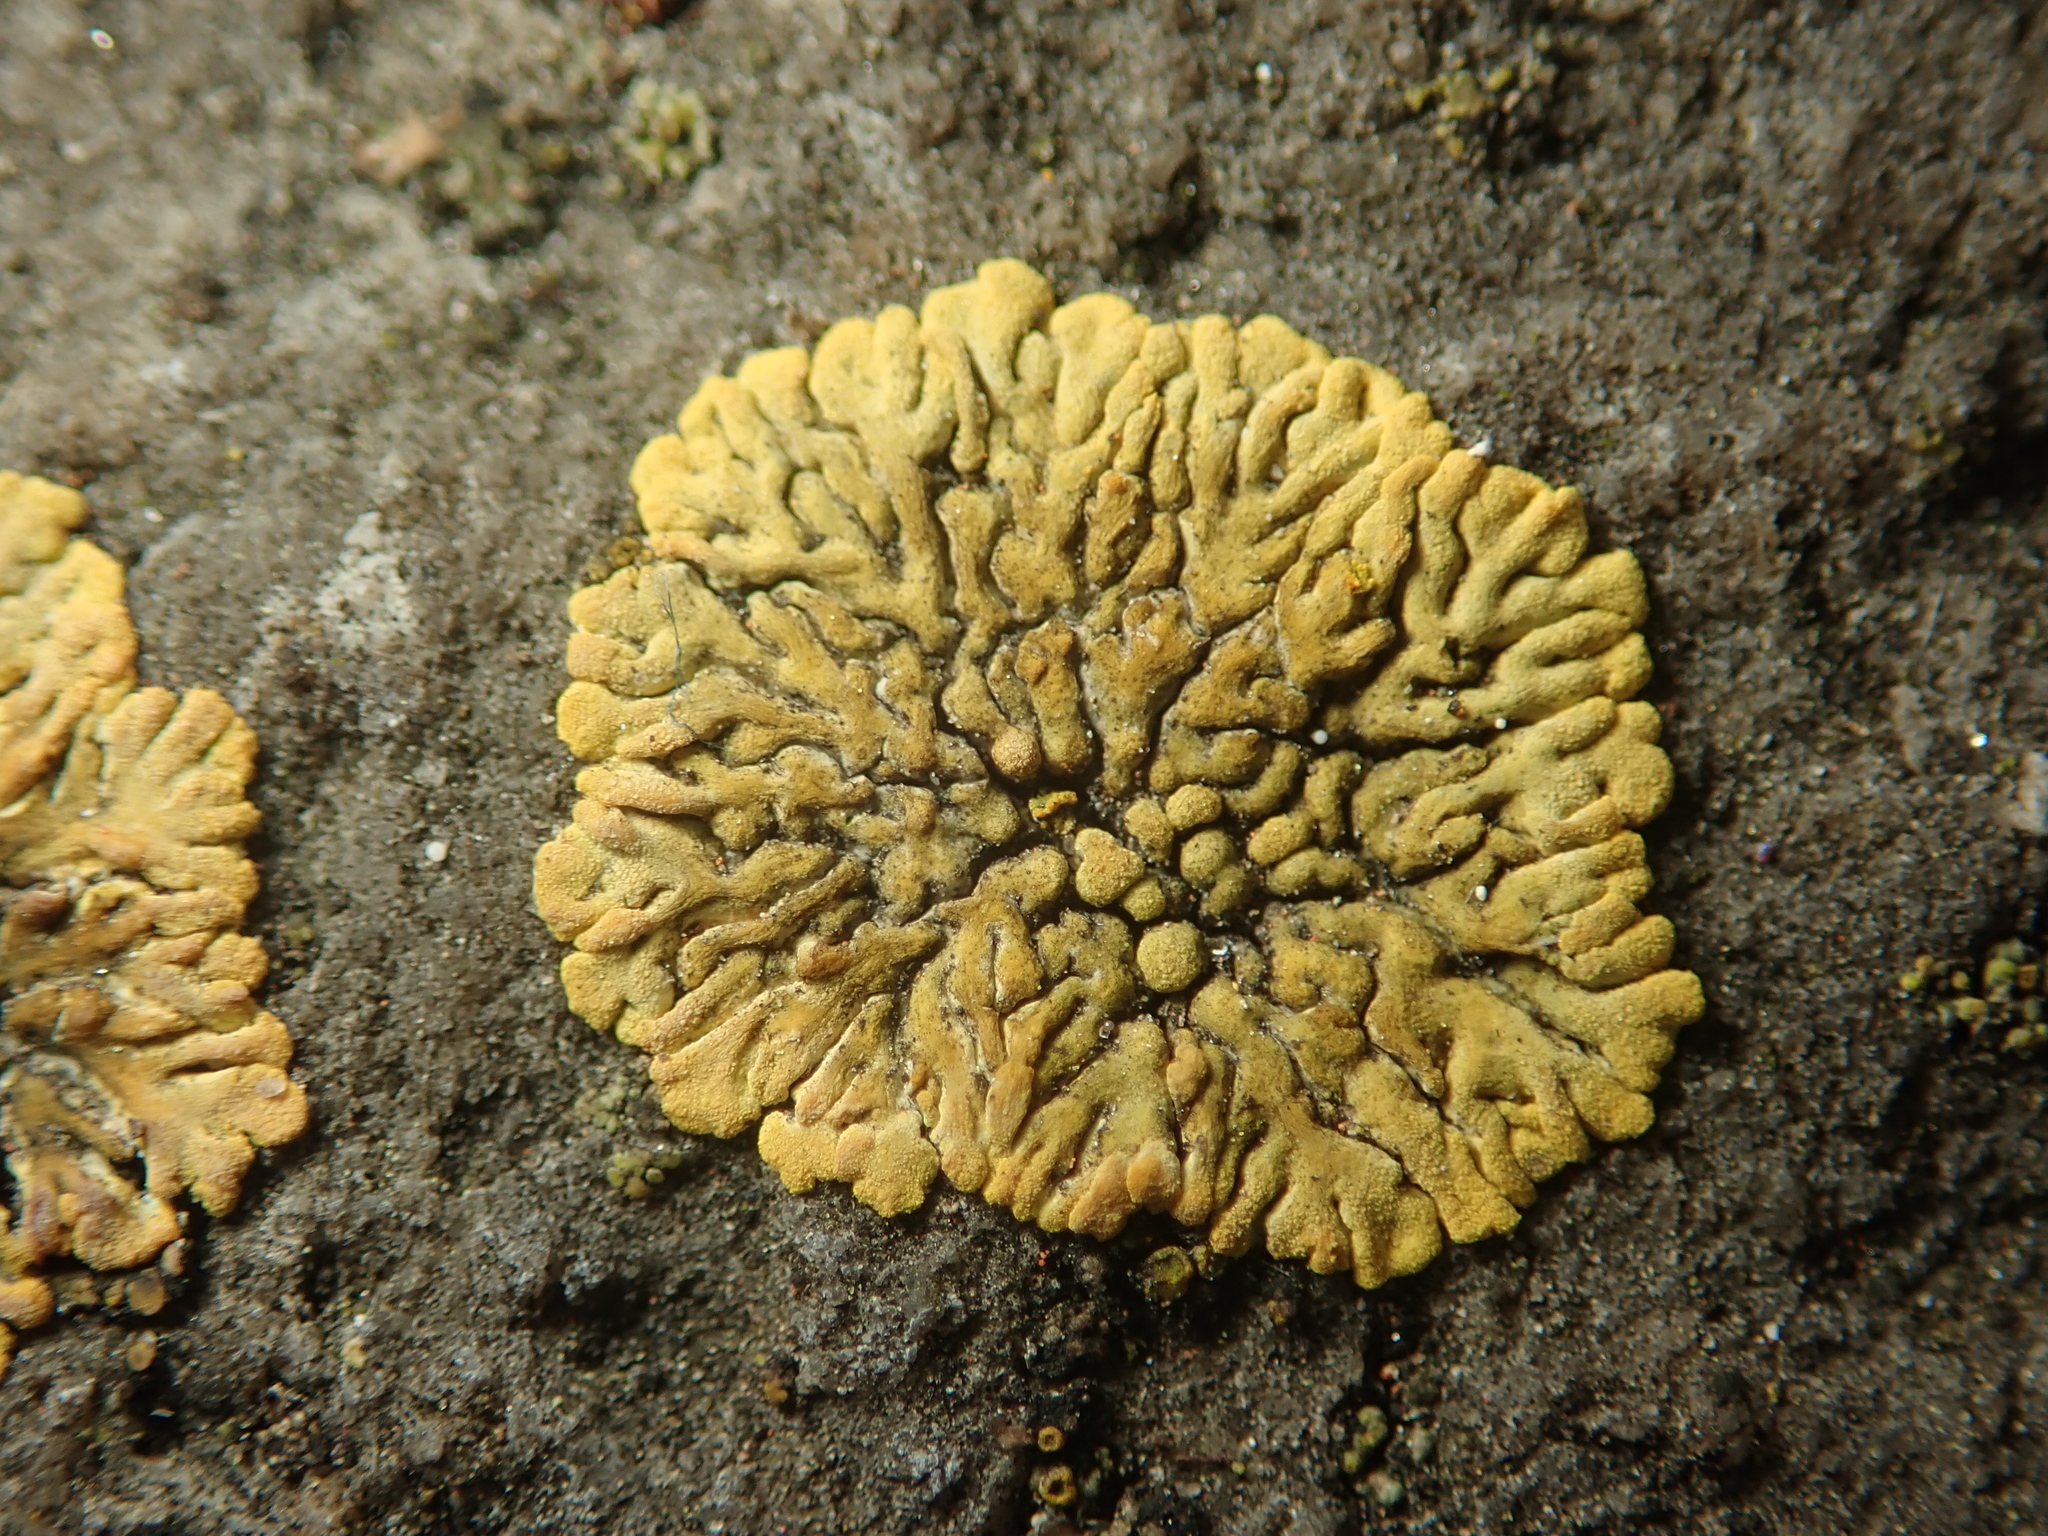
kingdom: Fungi
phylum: Ascomycota
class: Lecanoromycetes
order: Teloschistales
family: Teloschistaceae
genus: Calogaya
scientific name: Calogaya decipiens
